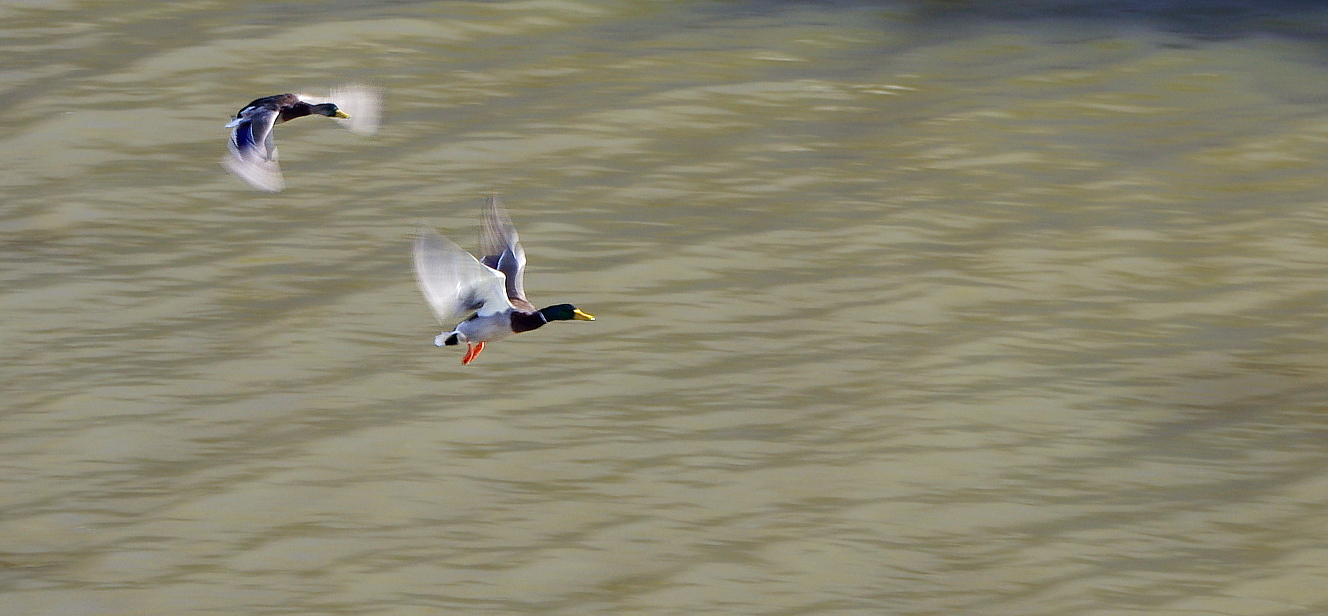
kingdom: Animalia
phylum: Chordata
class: Aves
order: Anseriformes
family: Anatidae
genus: Anas
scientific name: Anas platyrhynchos
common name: Mallard
